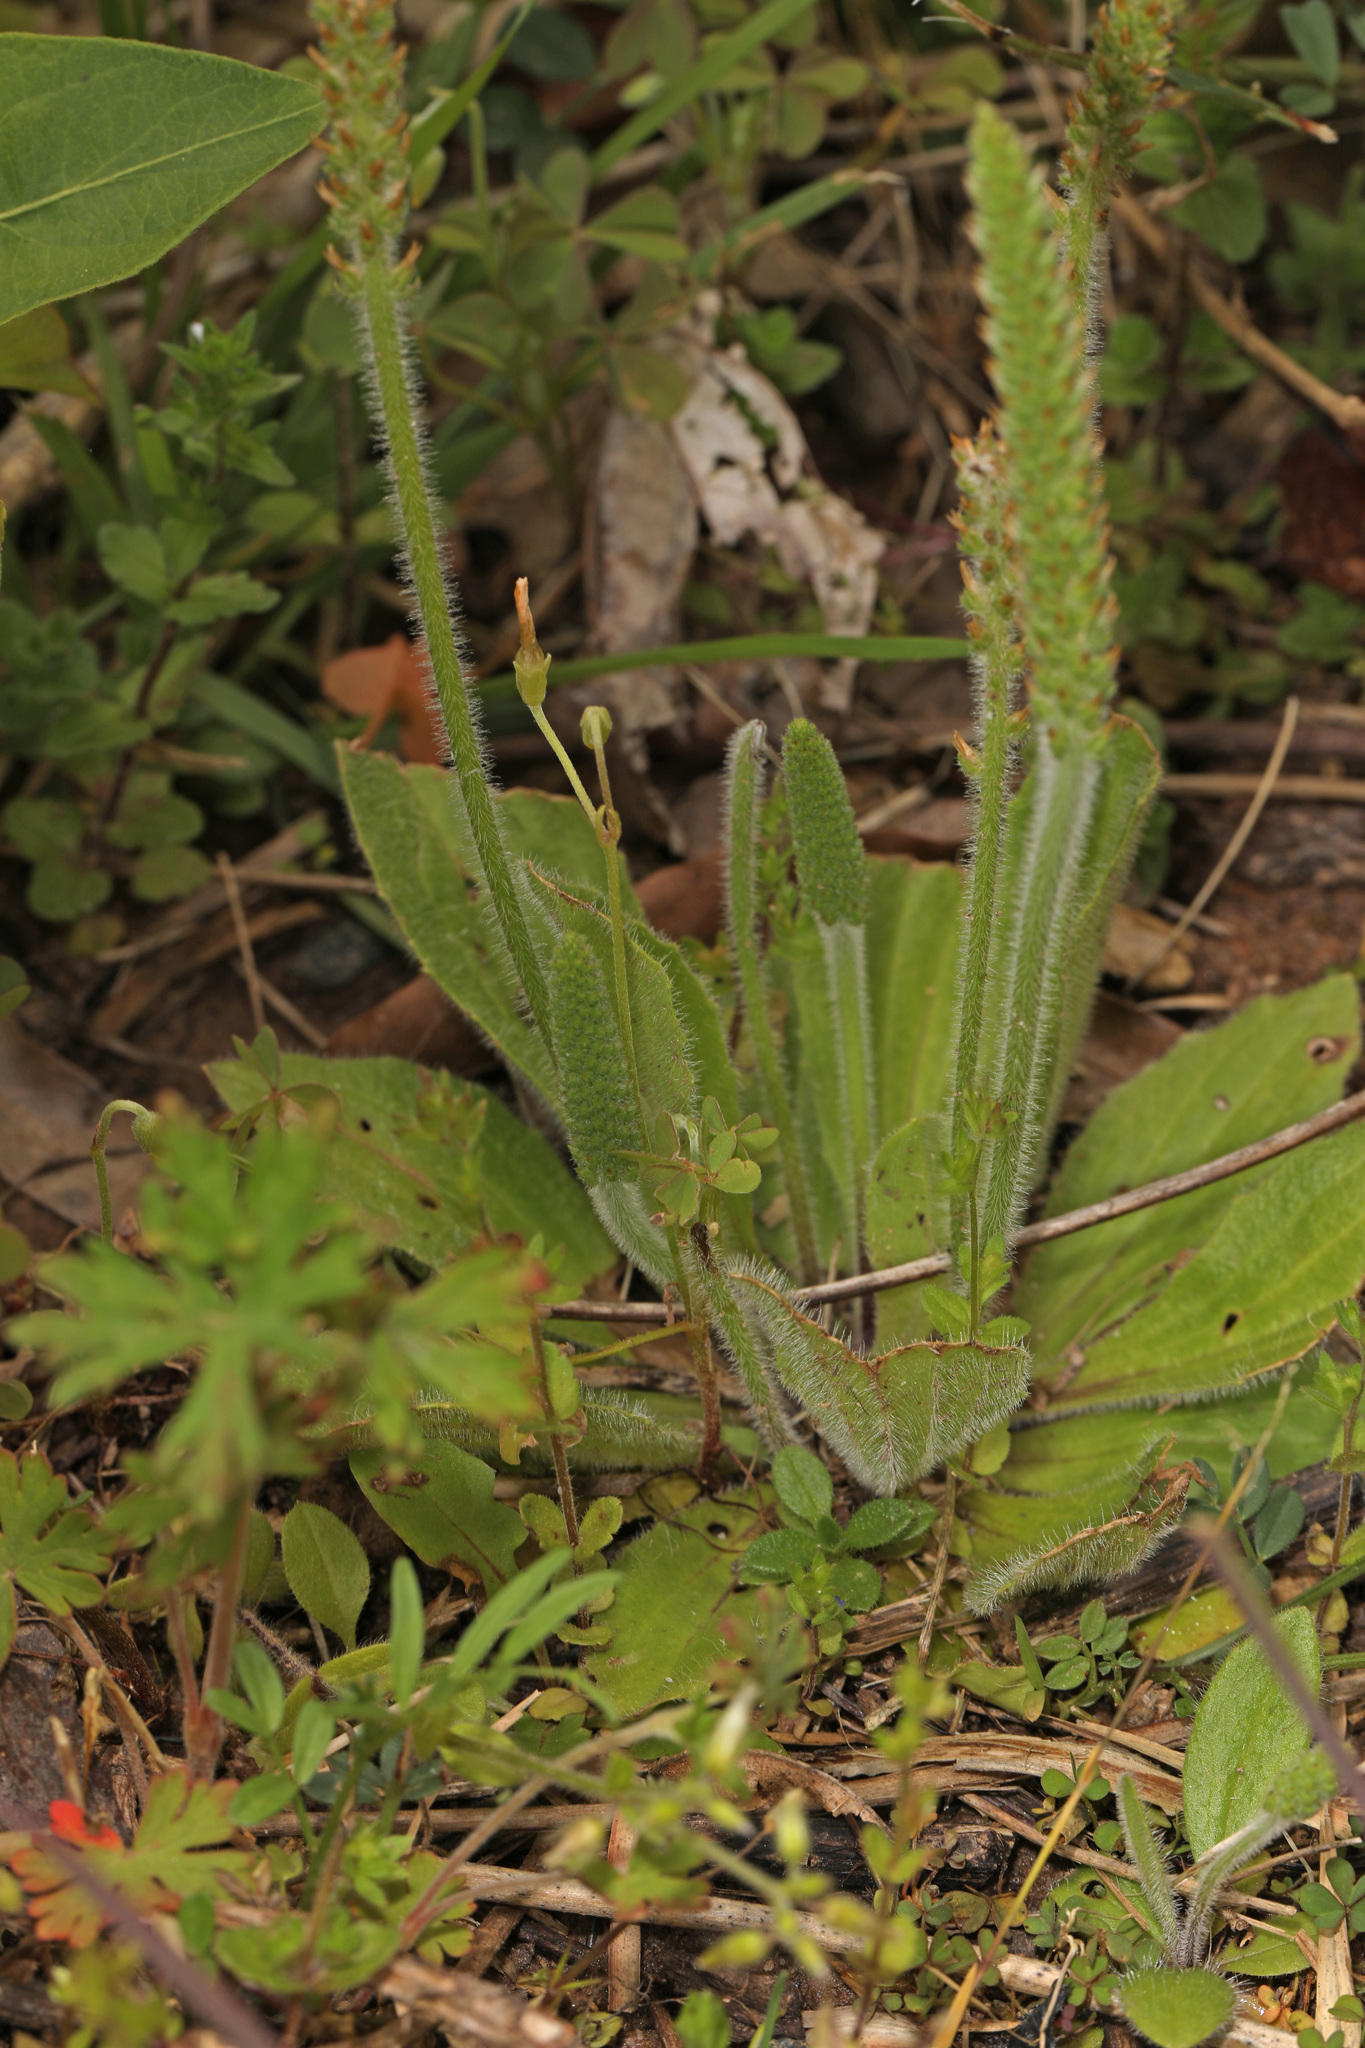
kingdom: Plantae
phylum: Tracheophyta
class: Magnoliopsida
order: Lamiales
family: Plantaginaceae
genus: Plantago
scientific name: Plantago virginica
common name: Hoary plantain
